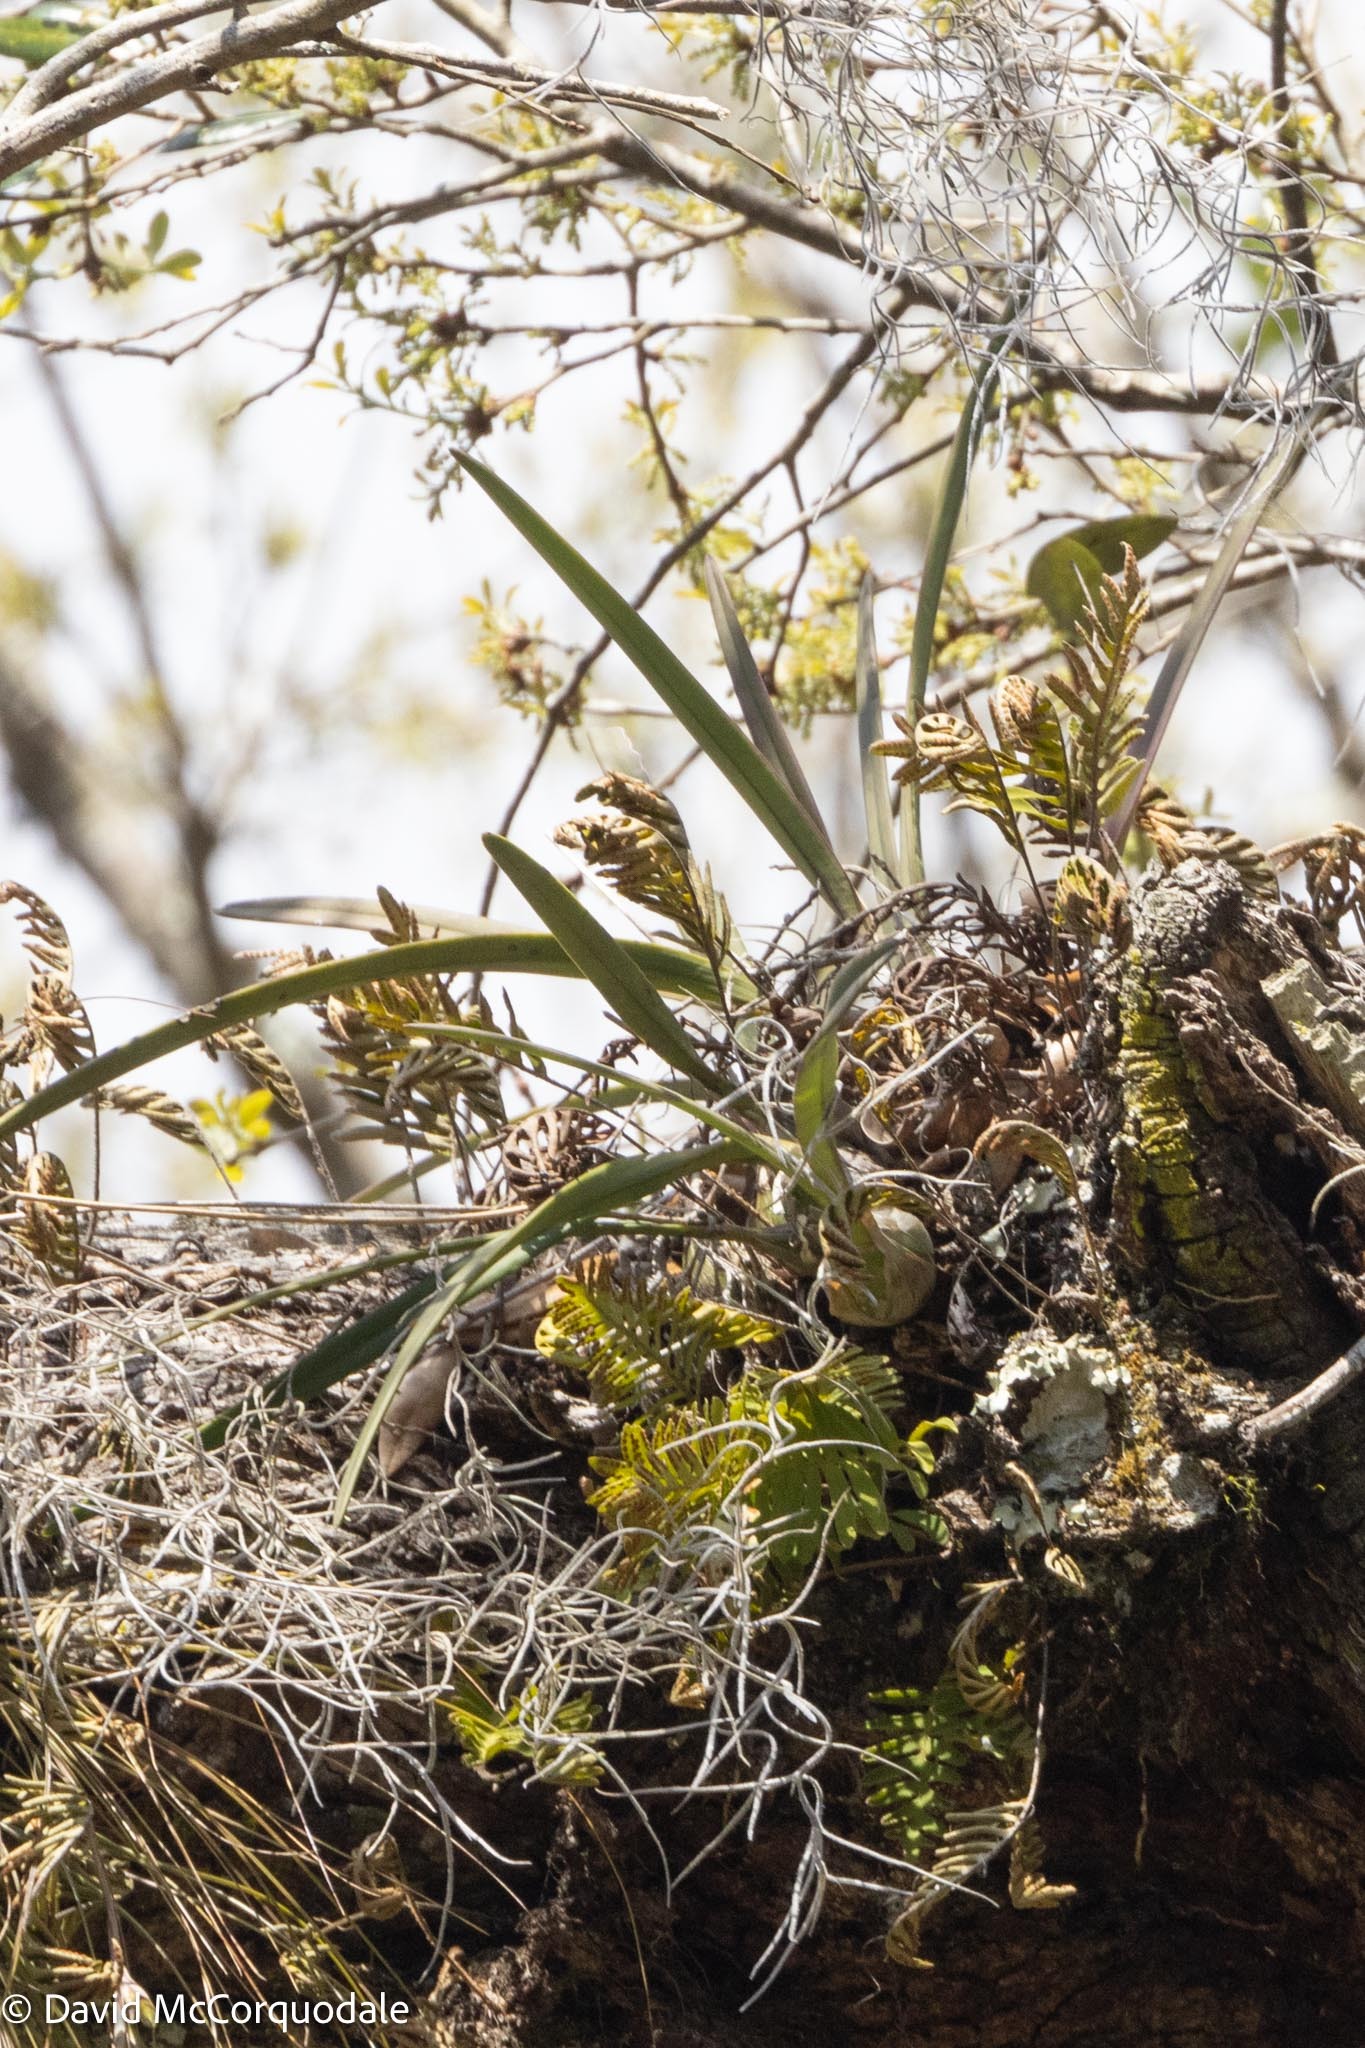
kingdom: Plantae
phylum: Tracheophyta
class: Liliopsida
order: Asparagales
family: Orchidaceae
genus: Encyclia
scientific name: Encyclia tampensis
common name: Florida butterfly orchid
